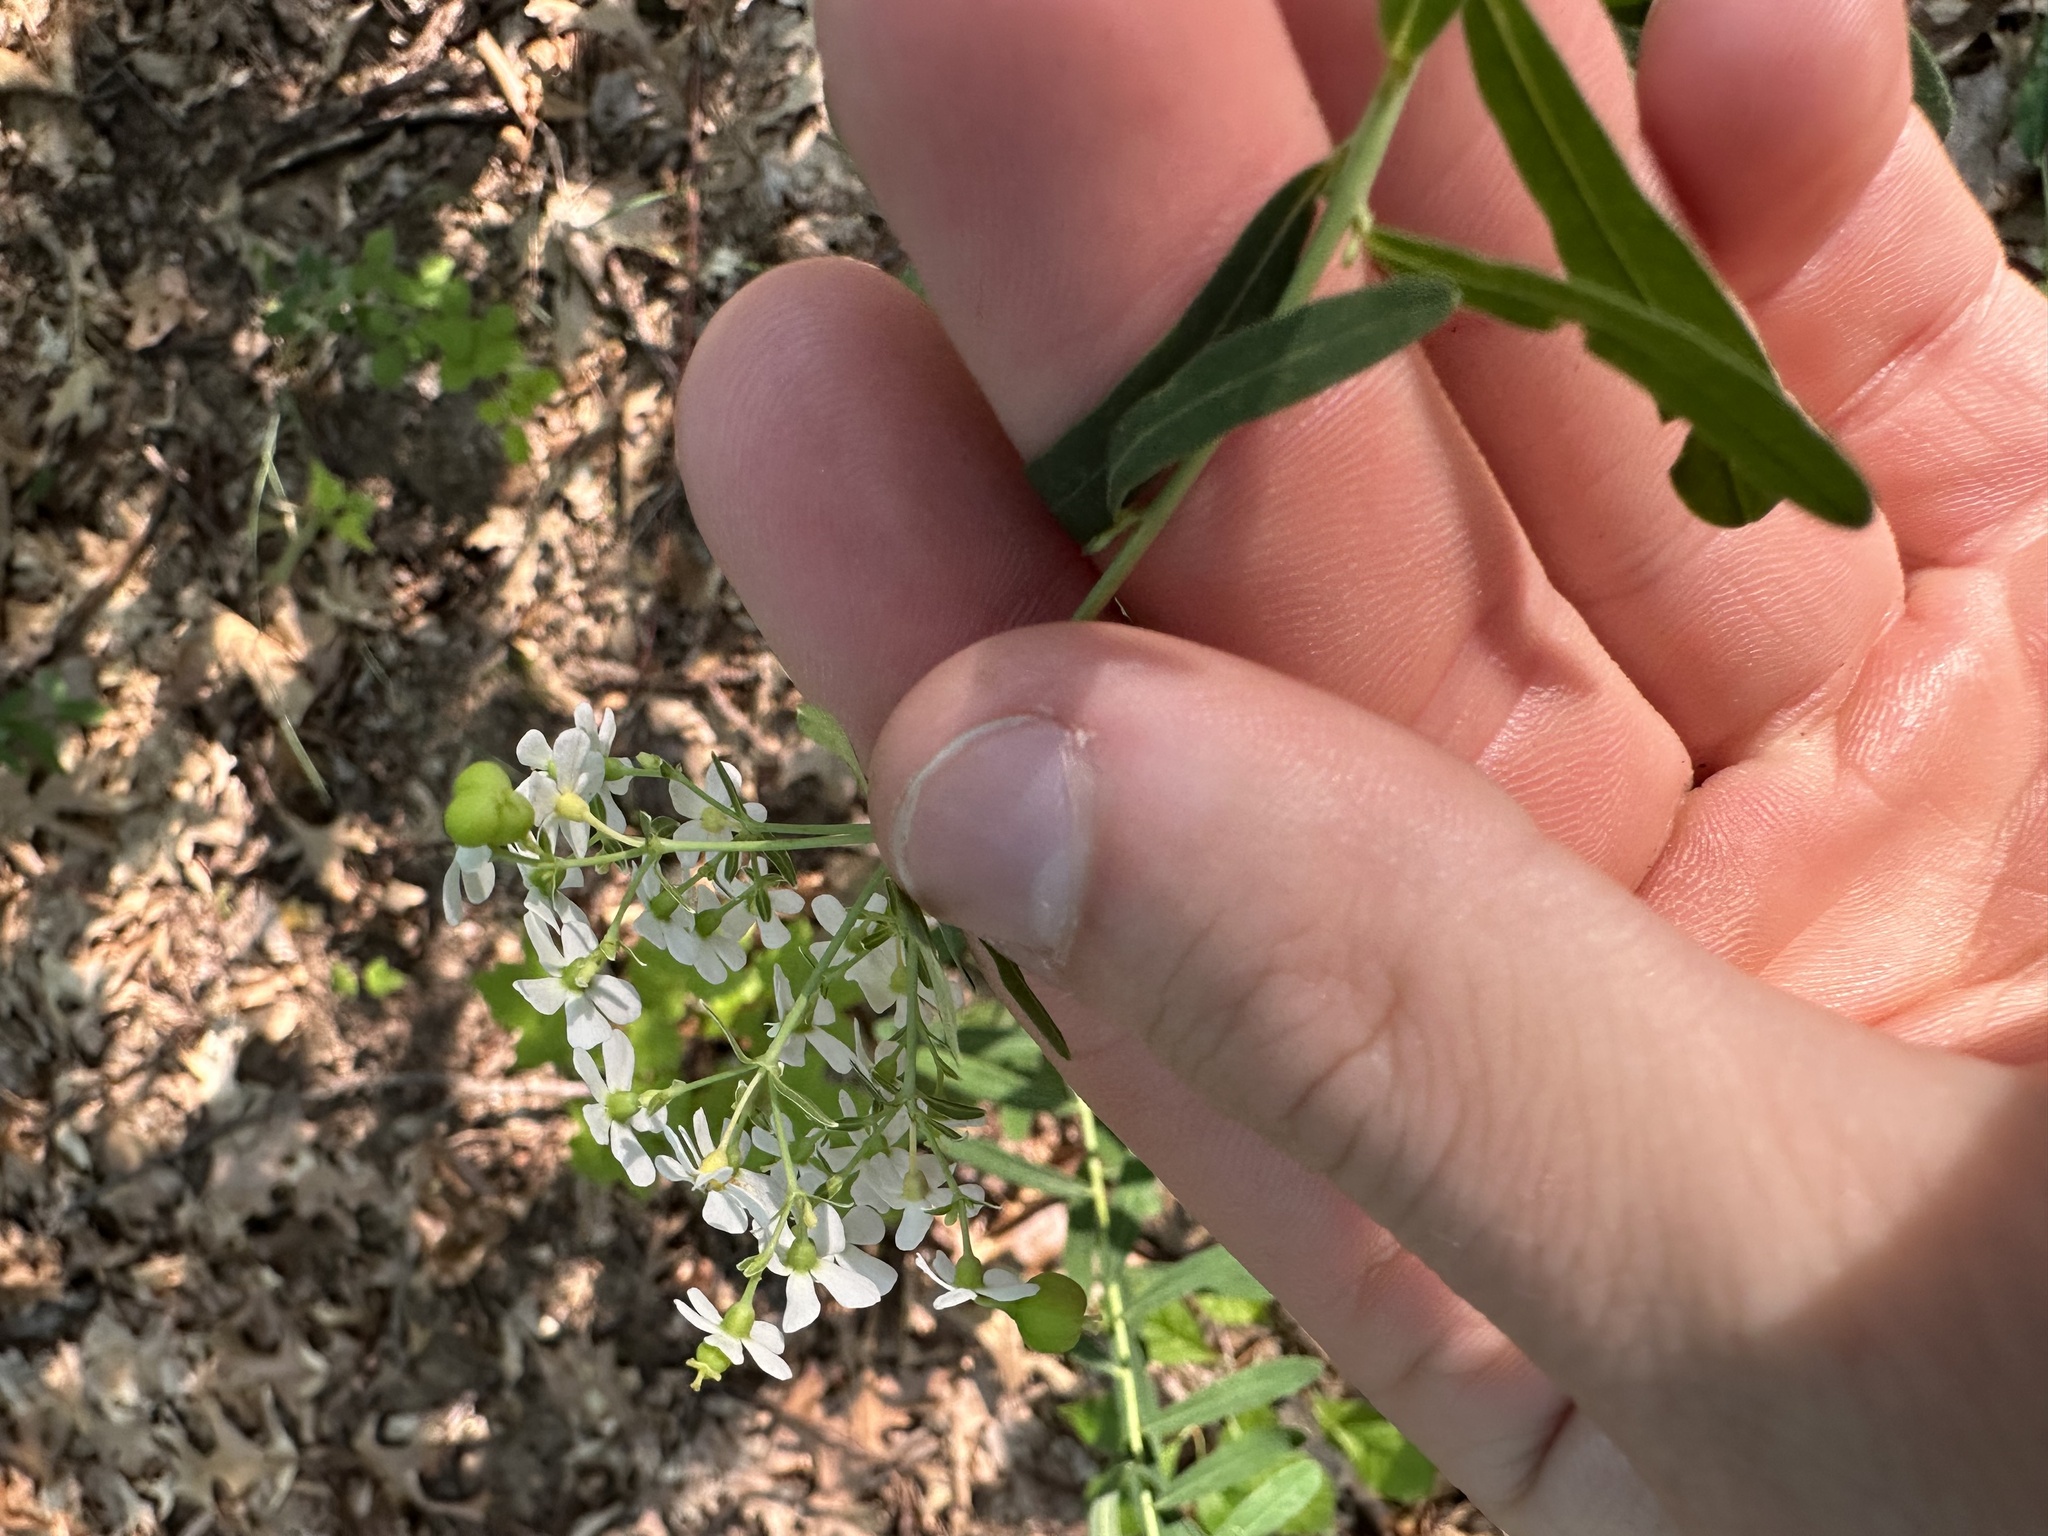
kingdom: Plantae
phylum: Tracheophyta
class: Magnoliopsida
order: Malpighiales
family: Euphorbiaceae
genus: Euphorbia
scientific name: Euphorbia corollata
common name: Flowering spurge
